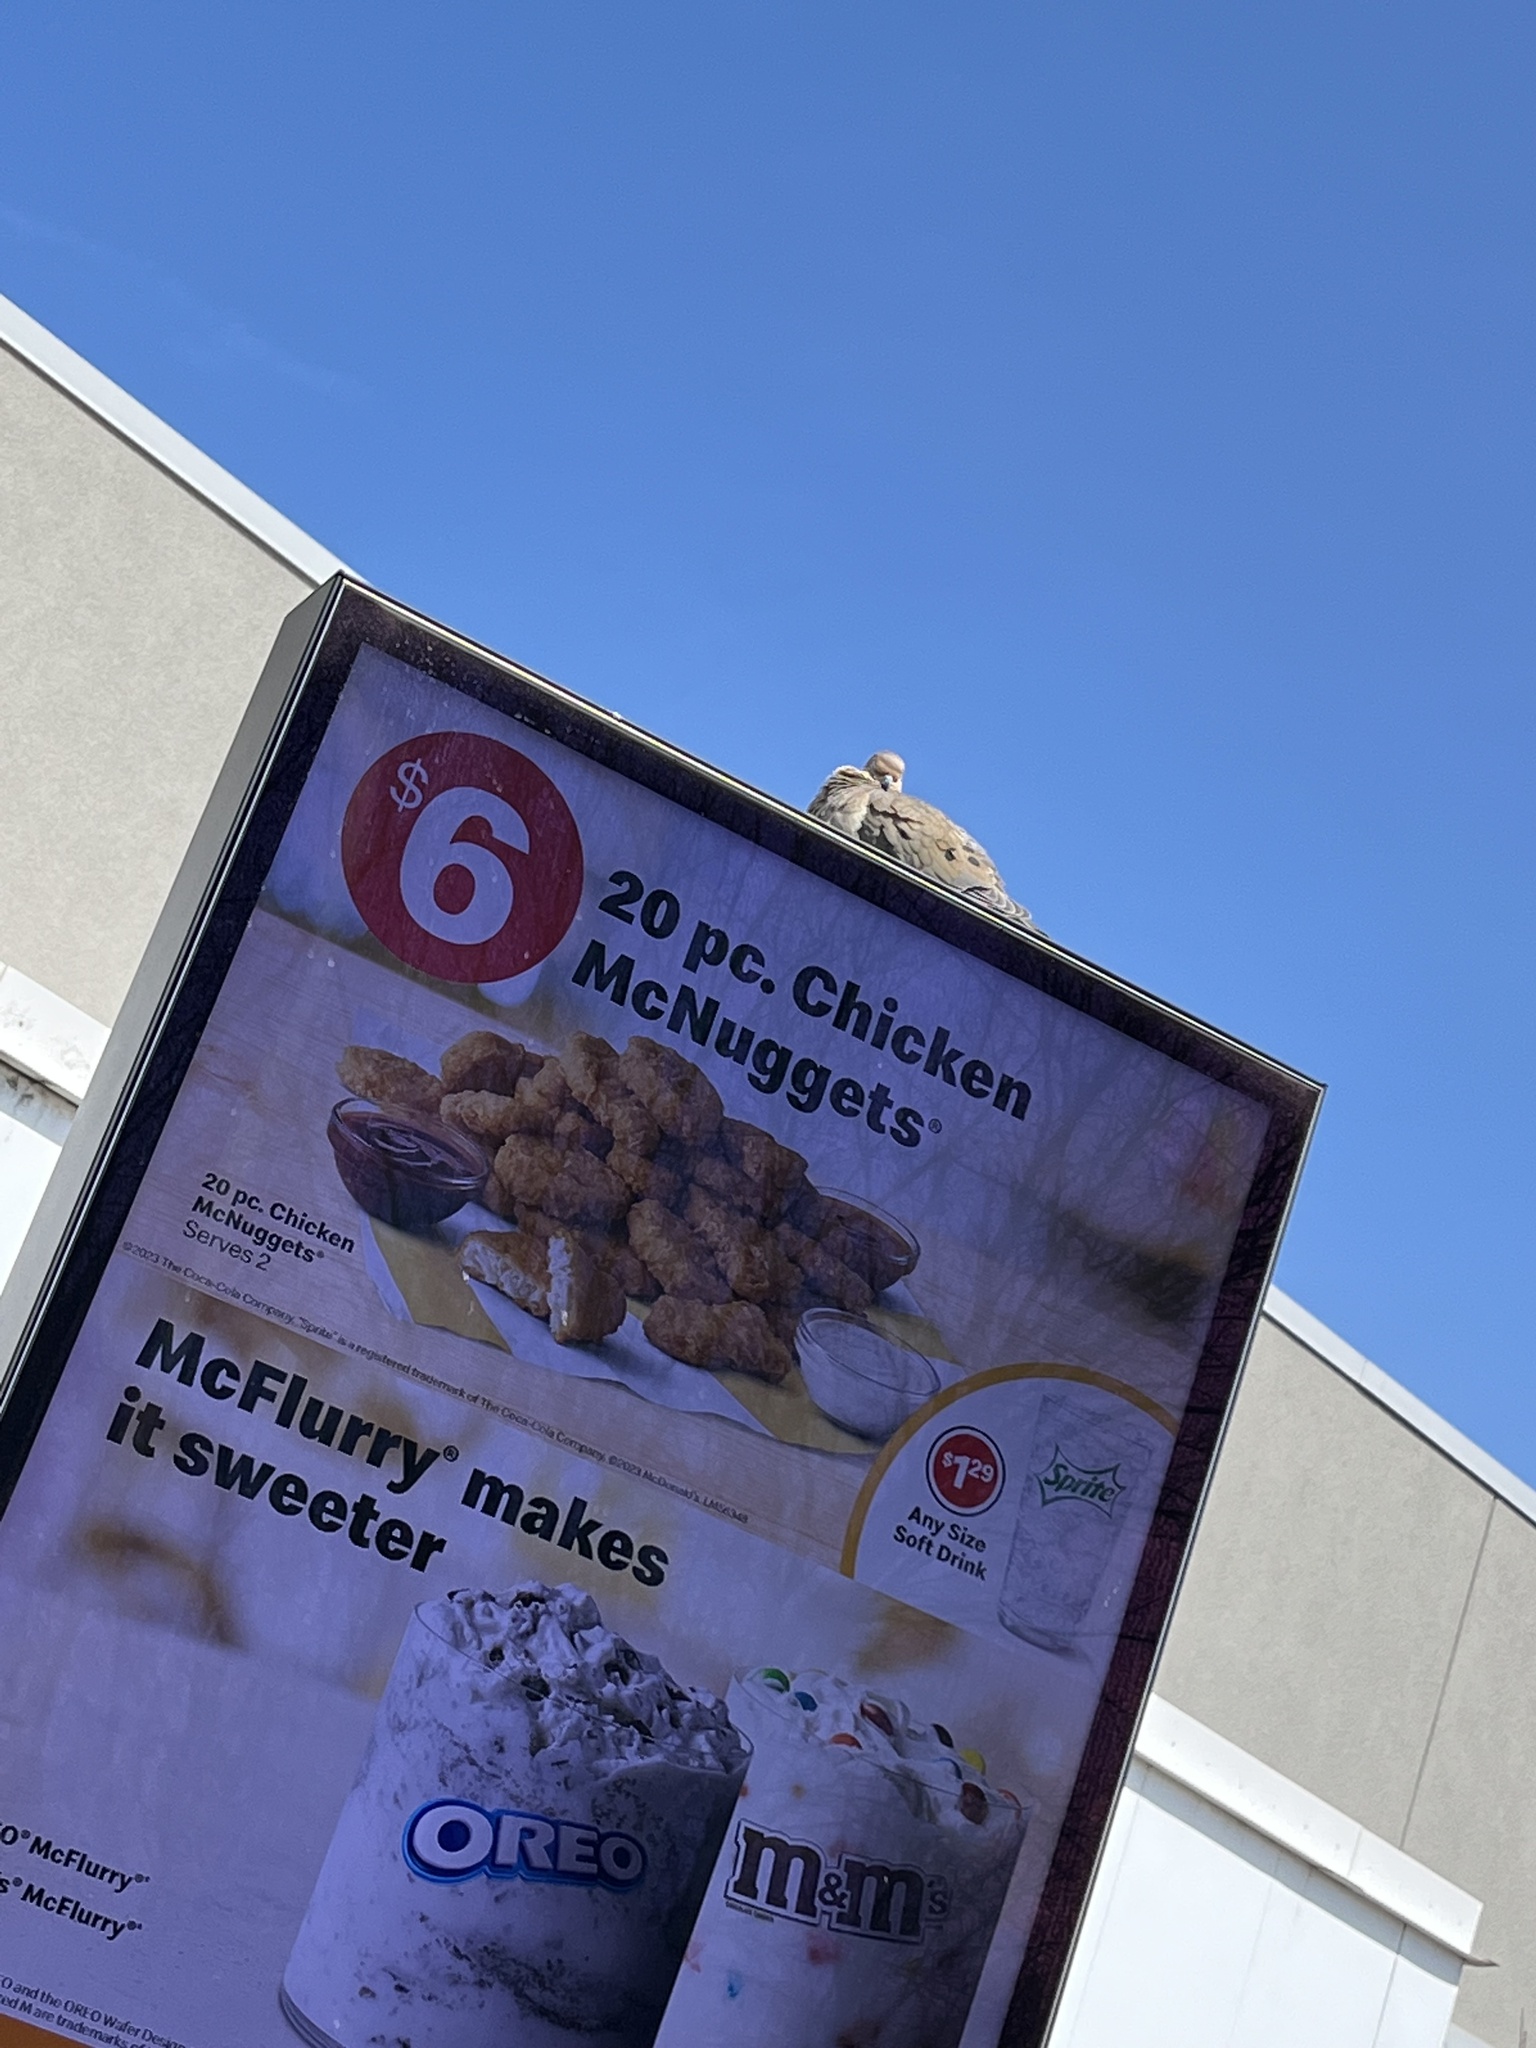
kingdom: Animalia
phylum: Chordata
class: Aves
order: Columbiformes
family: Columbidae
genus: Zenaida
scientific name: Zenaida macroura
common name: Mourning dove
